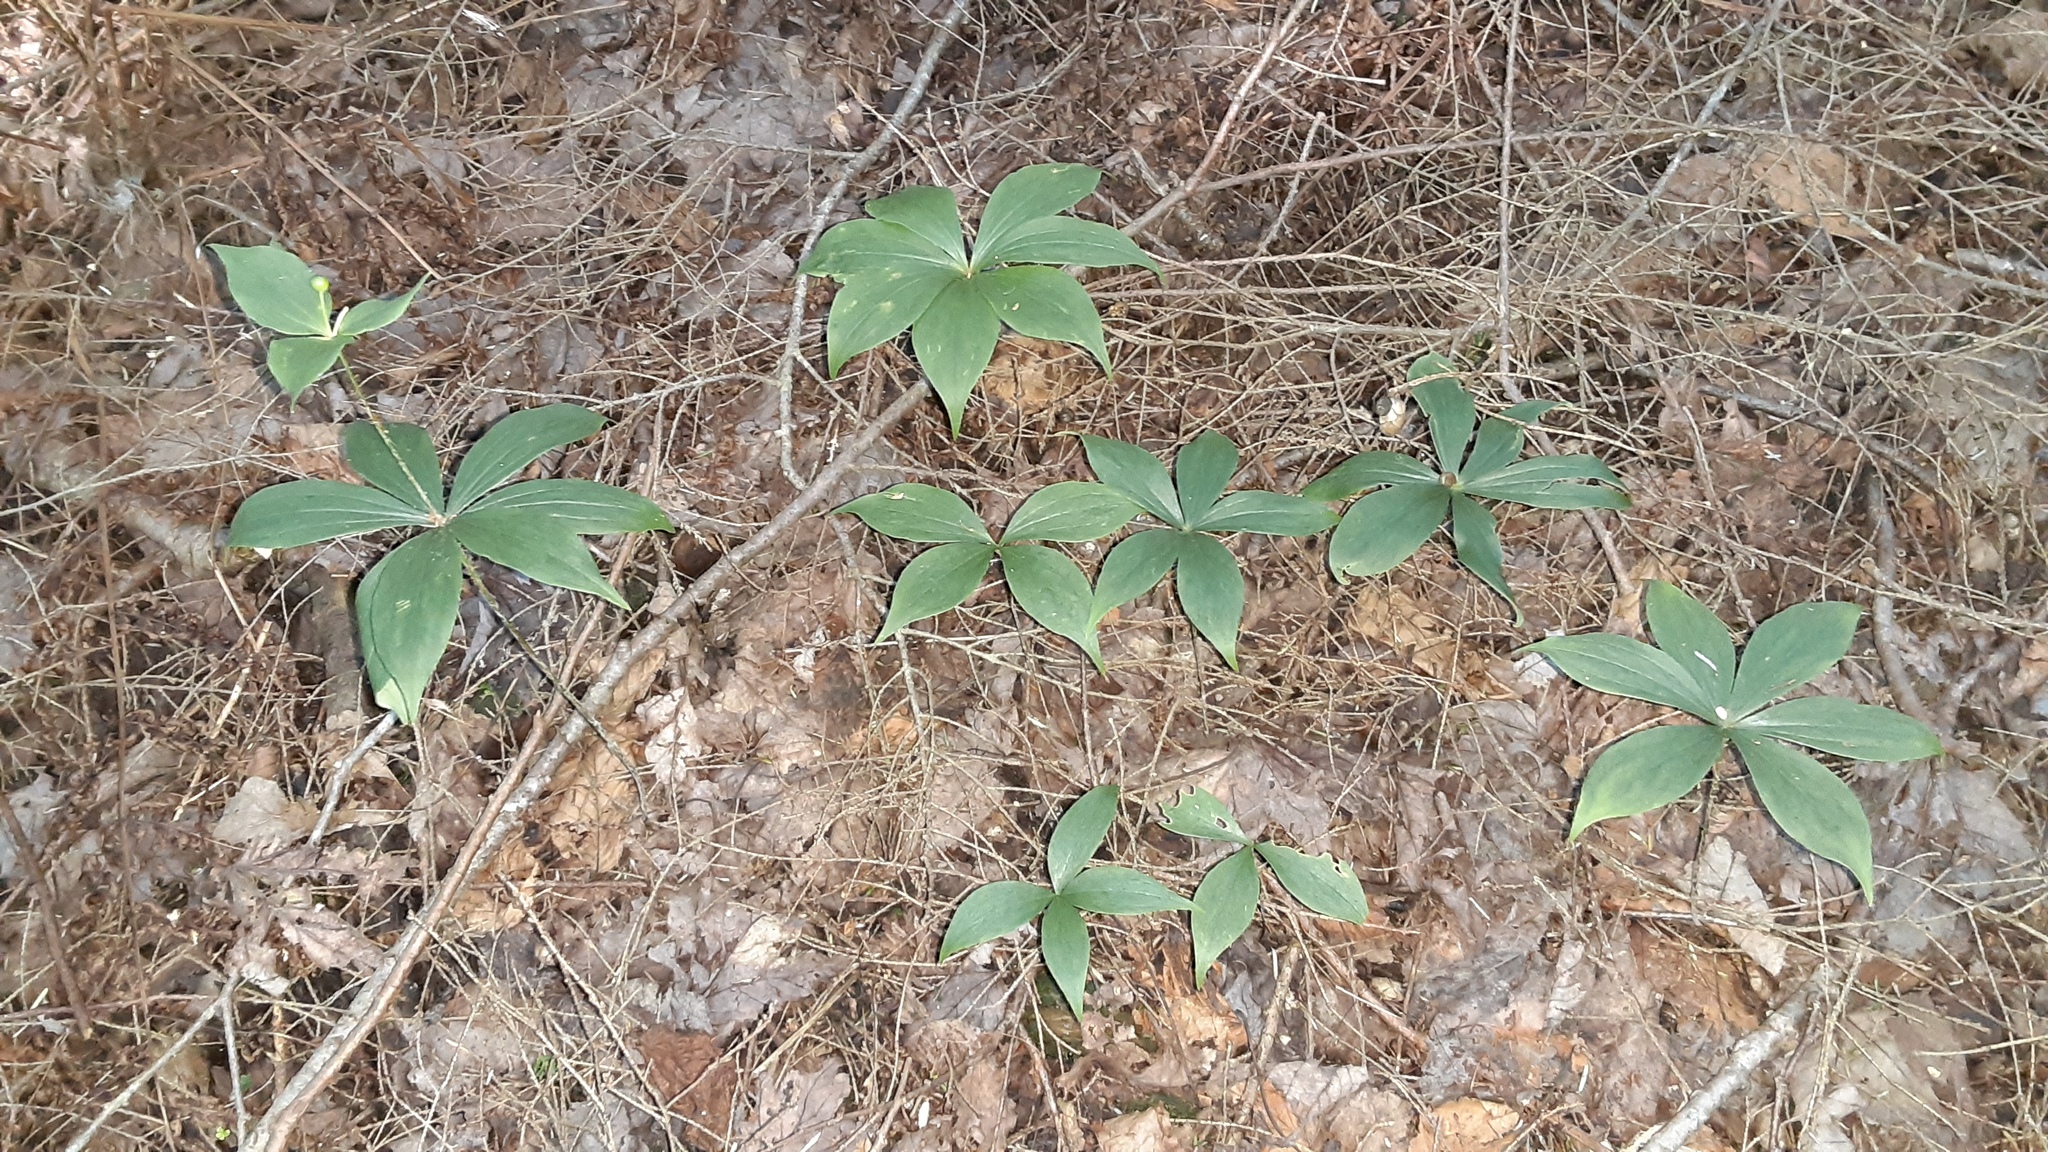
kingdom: Plantae
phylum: Tracheophyta
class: Liliopsida
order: Liliales
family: Liliaceae
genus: Medeola
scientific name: Medeola virginiana
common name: Indian cucumber-root
